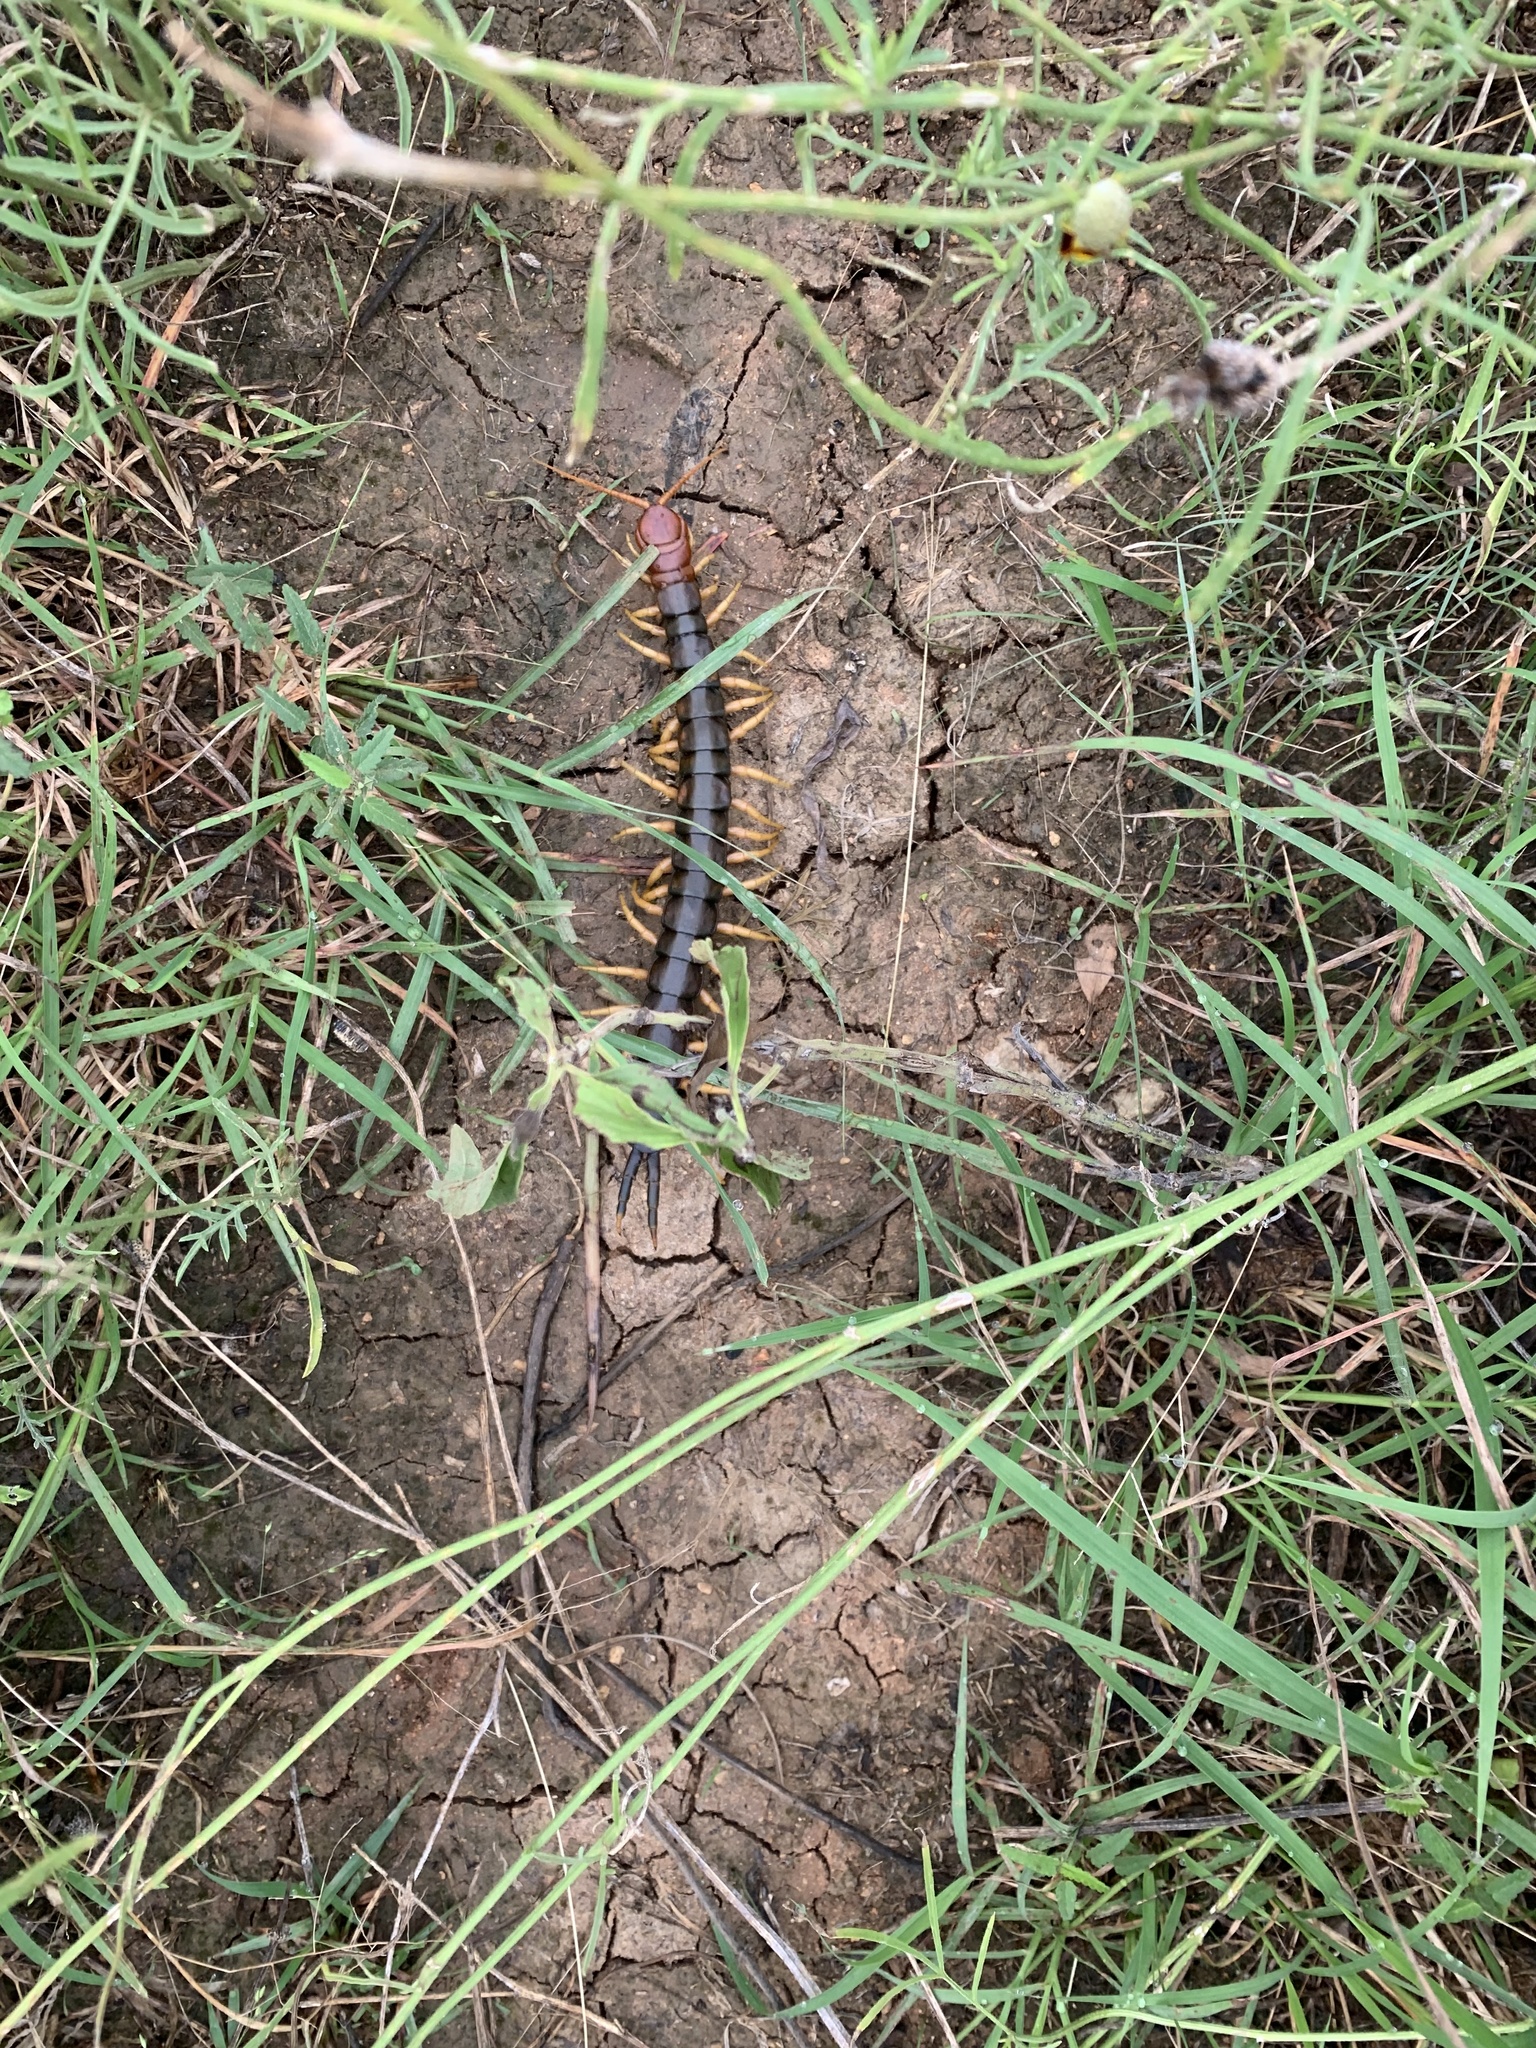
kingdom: Animalia
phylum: Arthropoda
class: Chilopoda
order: Scolopendromorpha
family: Scolopendridae
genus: Scolopendra
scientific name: Scolopendra heros
